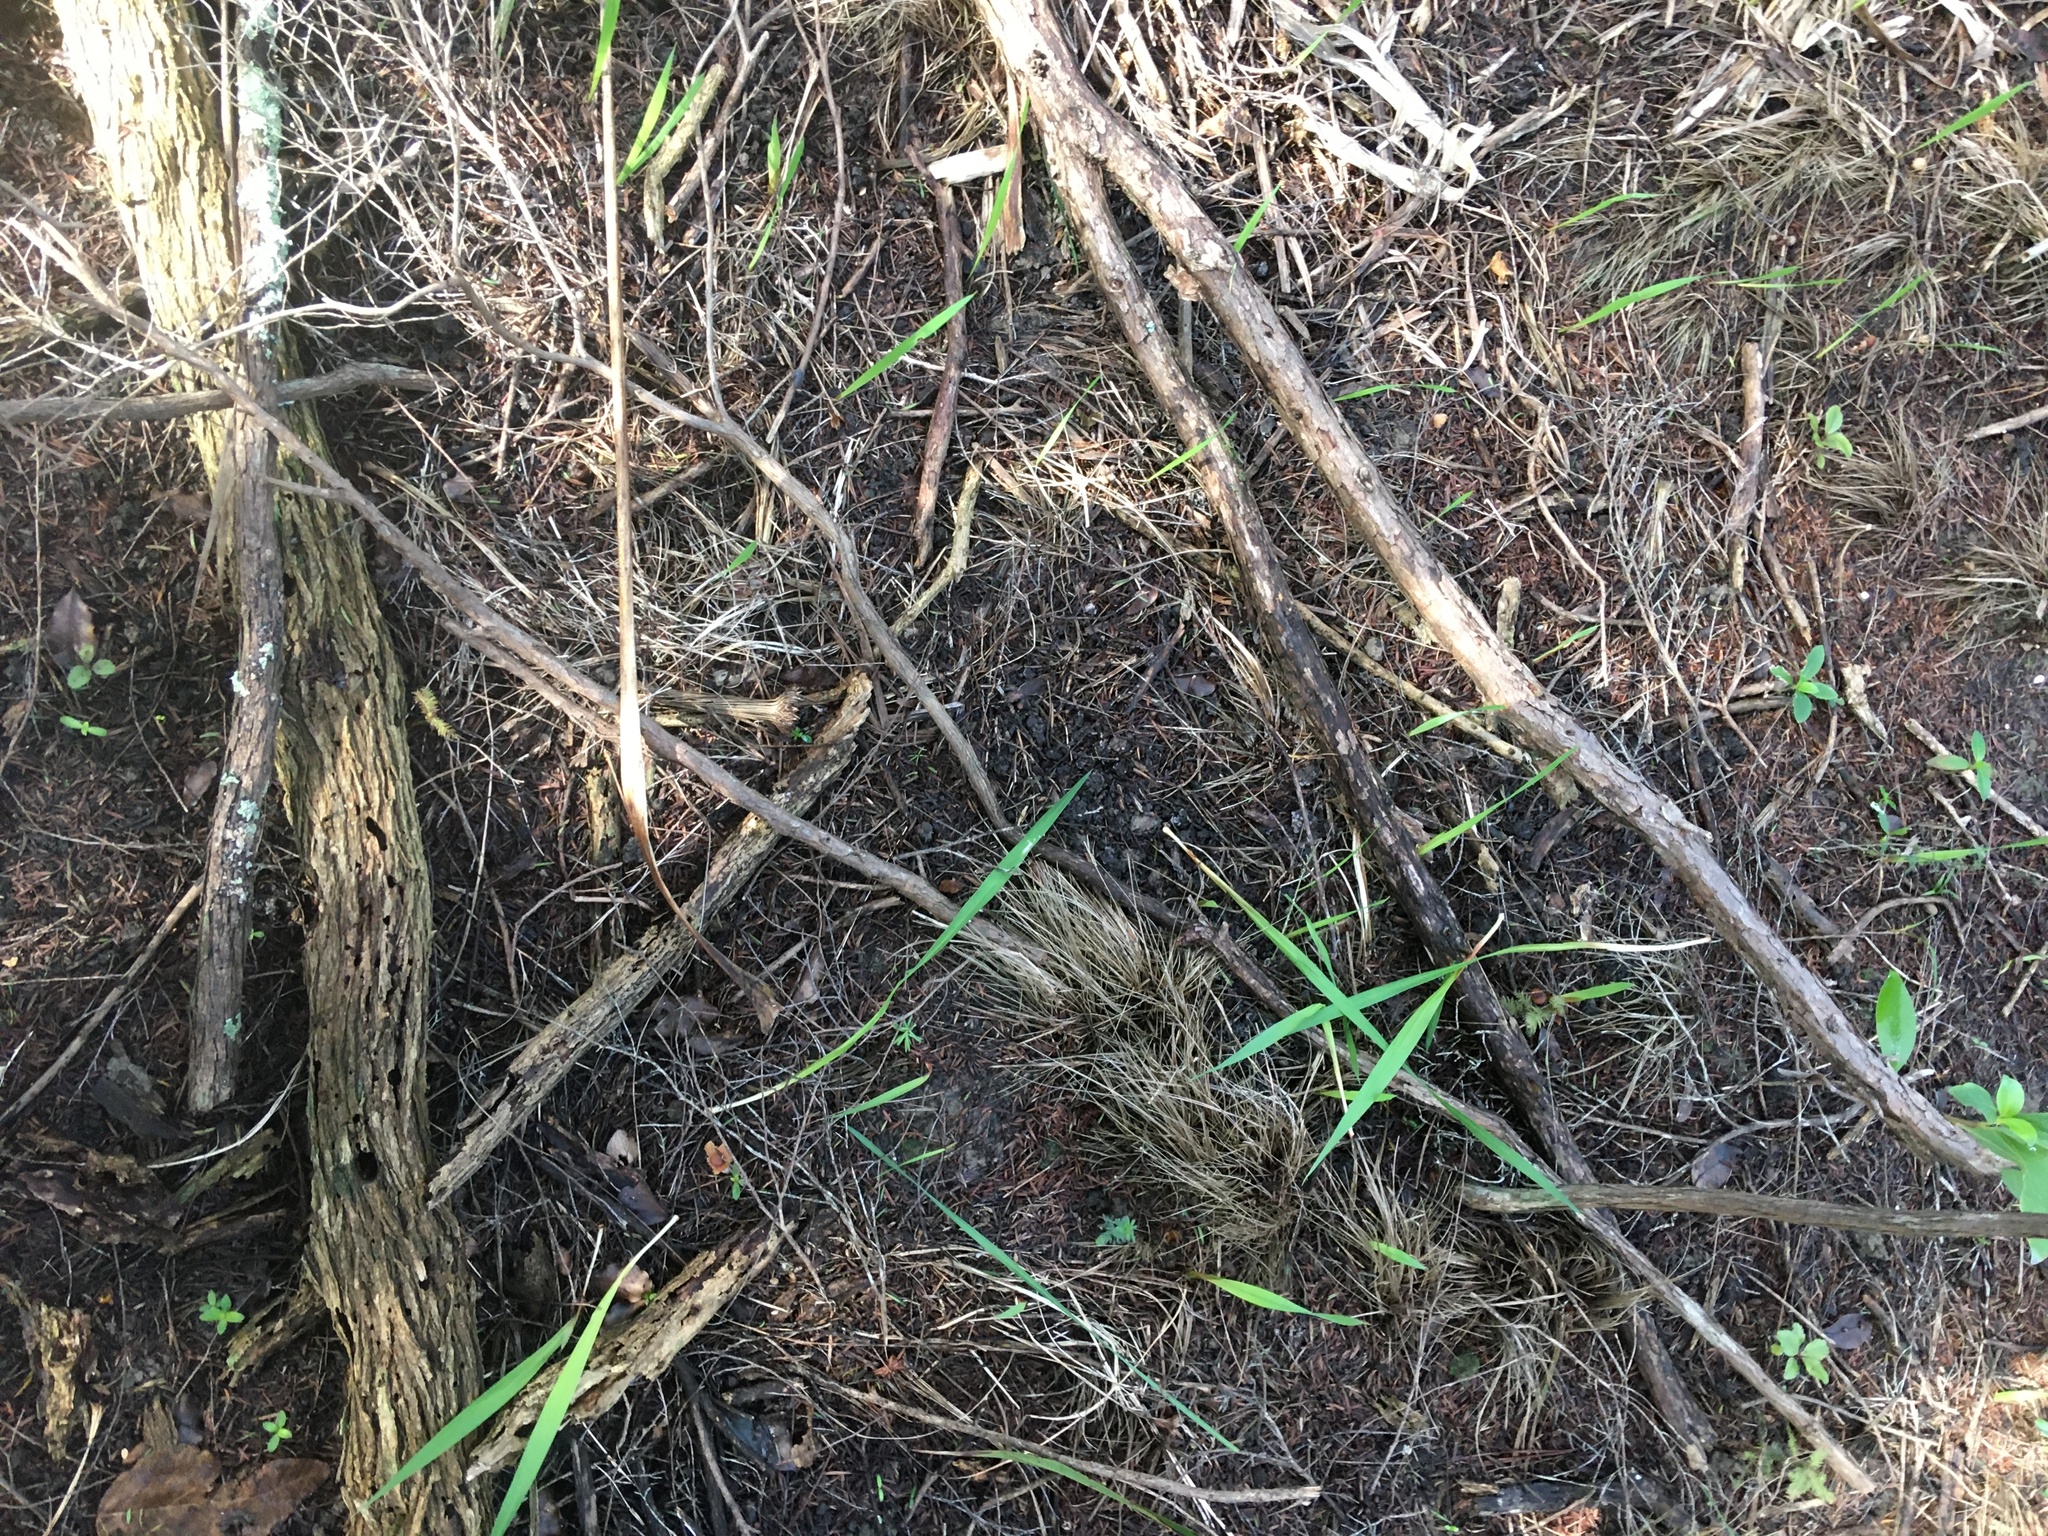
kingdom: Plantae
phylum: Tracheophyta
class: Liliopsida
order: Asparagales
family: Iridaceae
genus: Watsonia
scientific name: Watsonia meriana
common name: Bulbil bugle-lily
